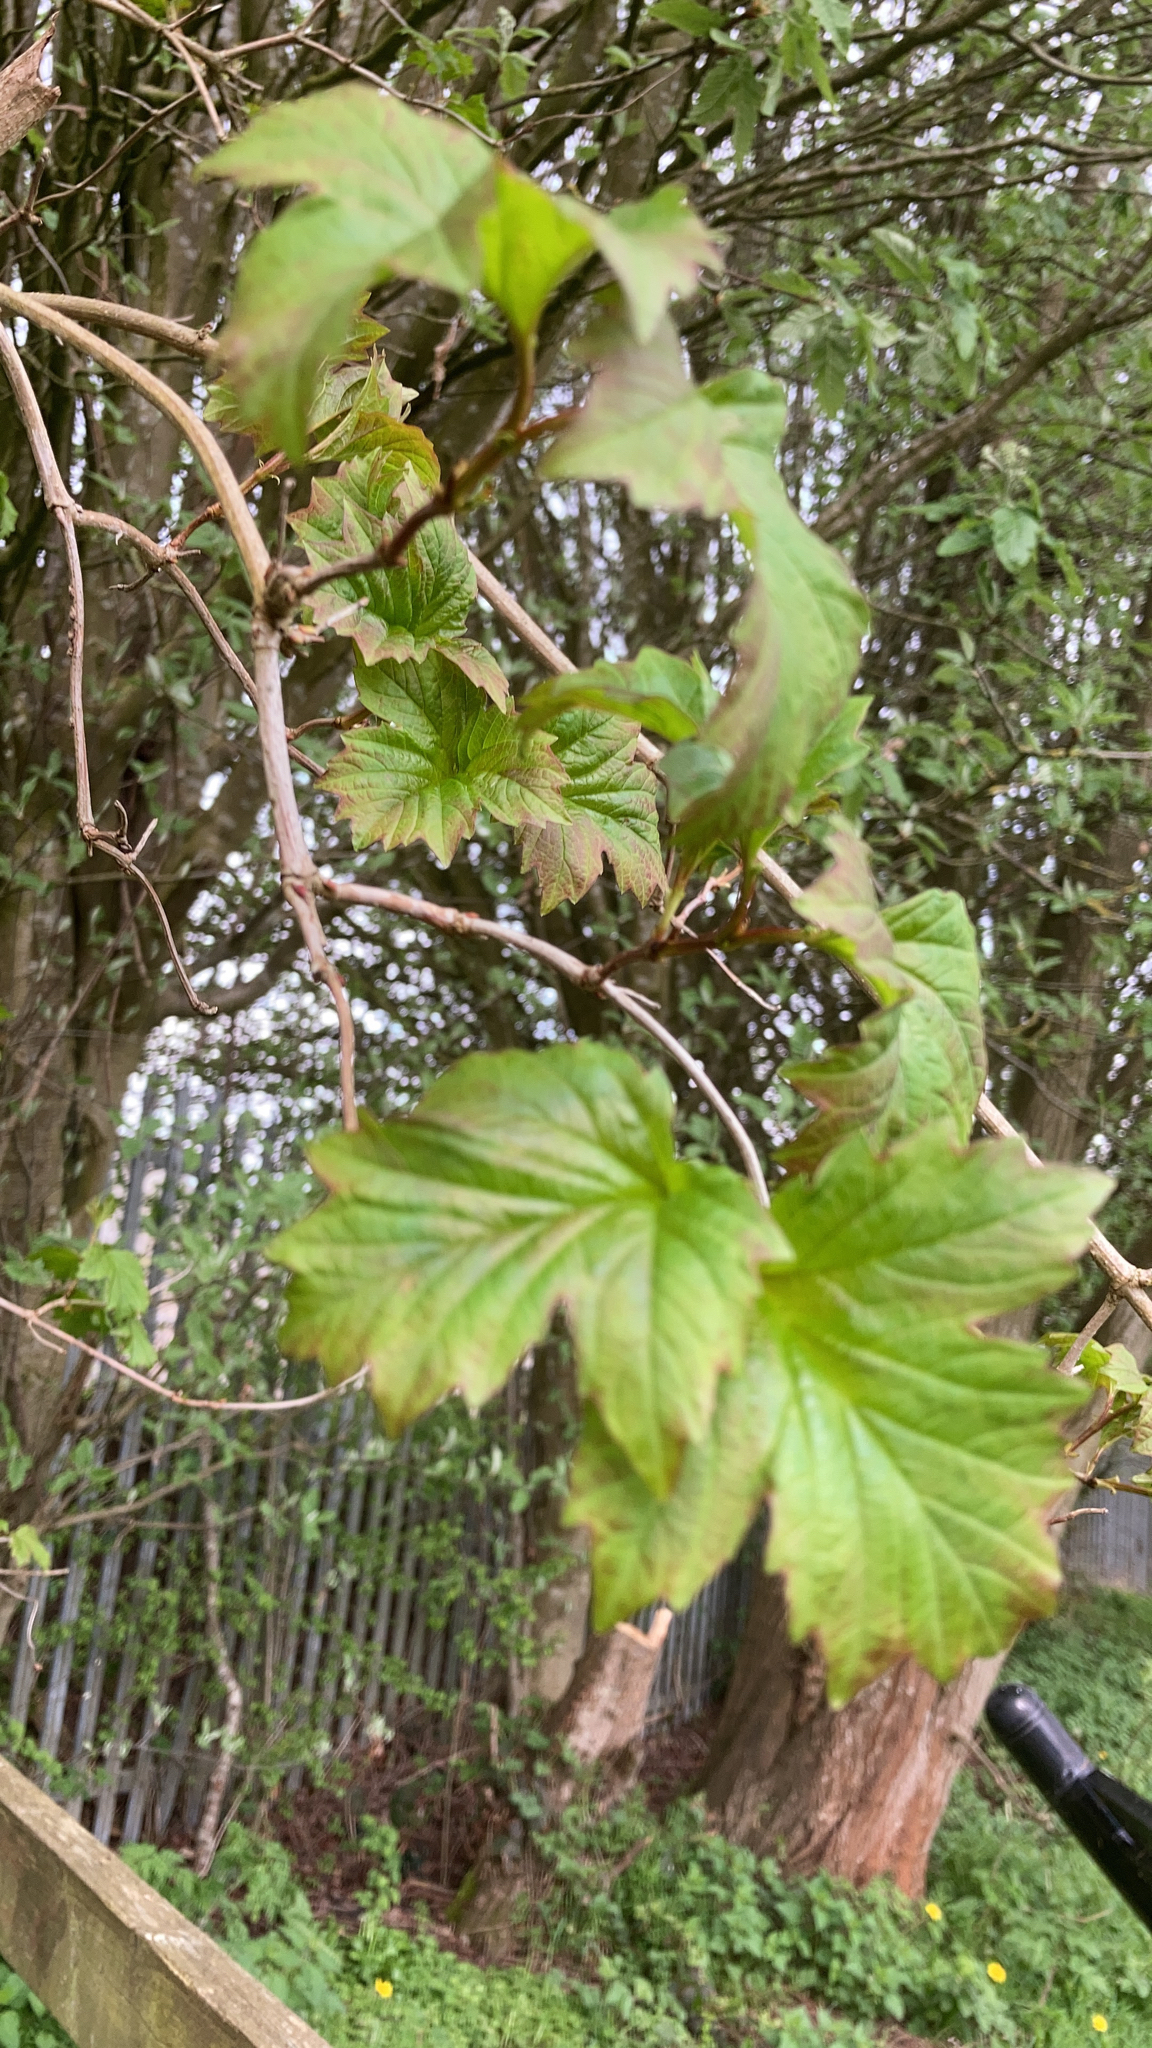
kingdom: Plantae
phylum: Tracheophyta
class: Magnoliopsida
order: Dipsacales
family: Viburnaceae
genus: Viburnum
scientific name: Viburnum opulus
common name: Guelder-rose
